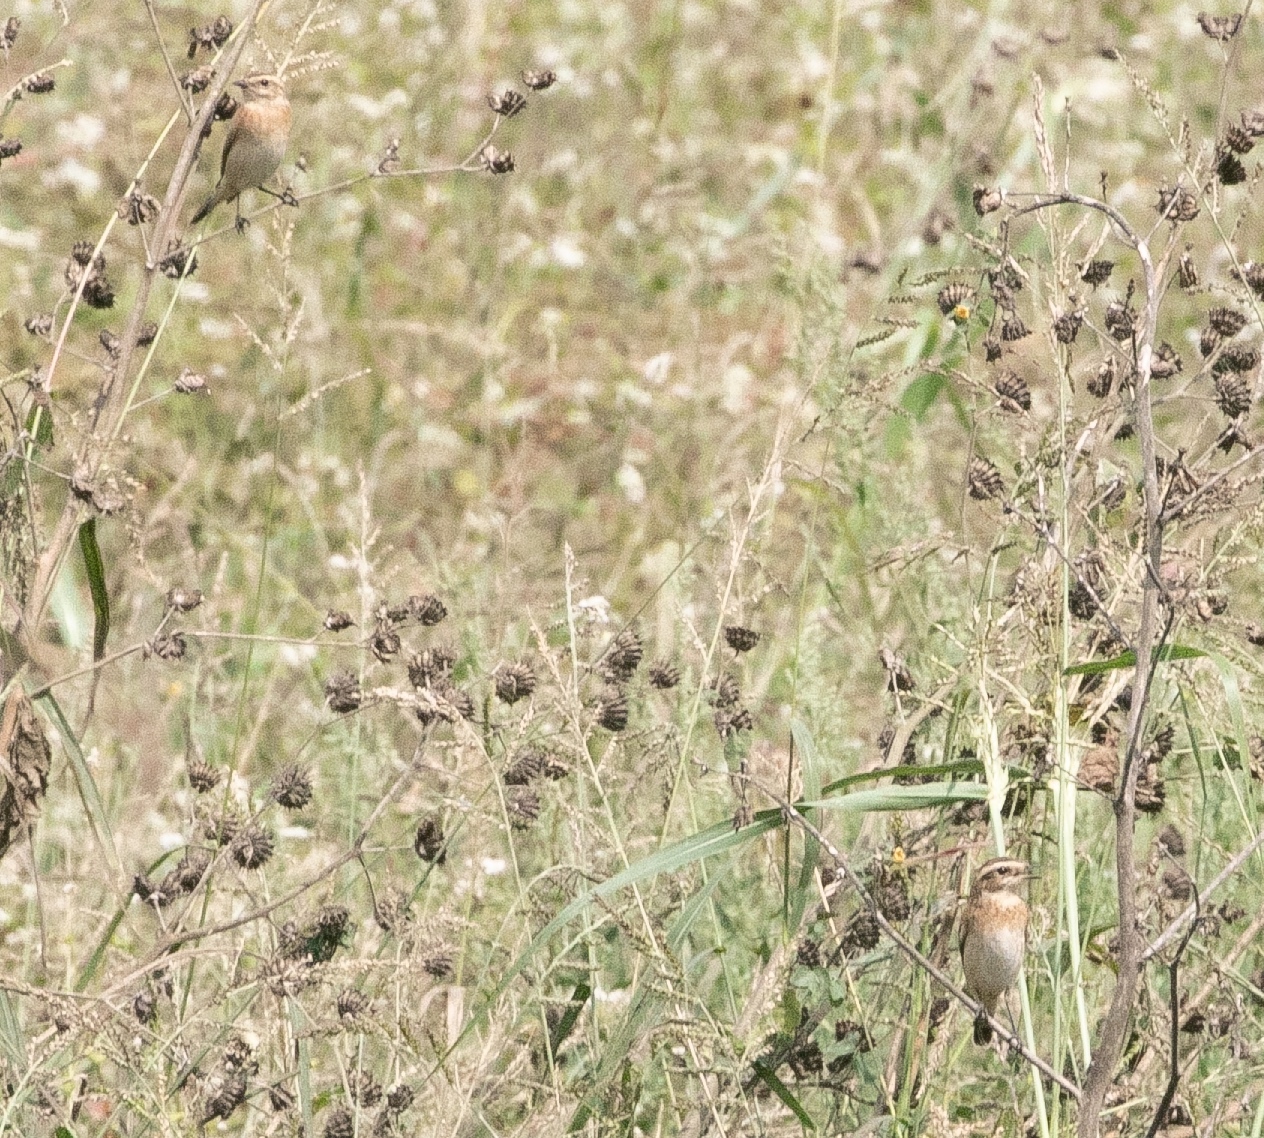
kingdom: Animalia
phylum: Chordata
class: Aves
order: Passeriformes
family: Muscicapidae
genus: Saxicola
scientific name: Saxicola rubetra
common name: Whinchat
